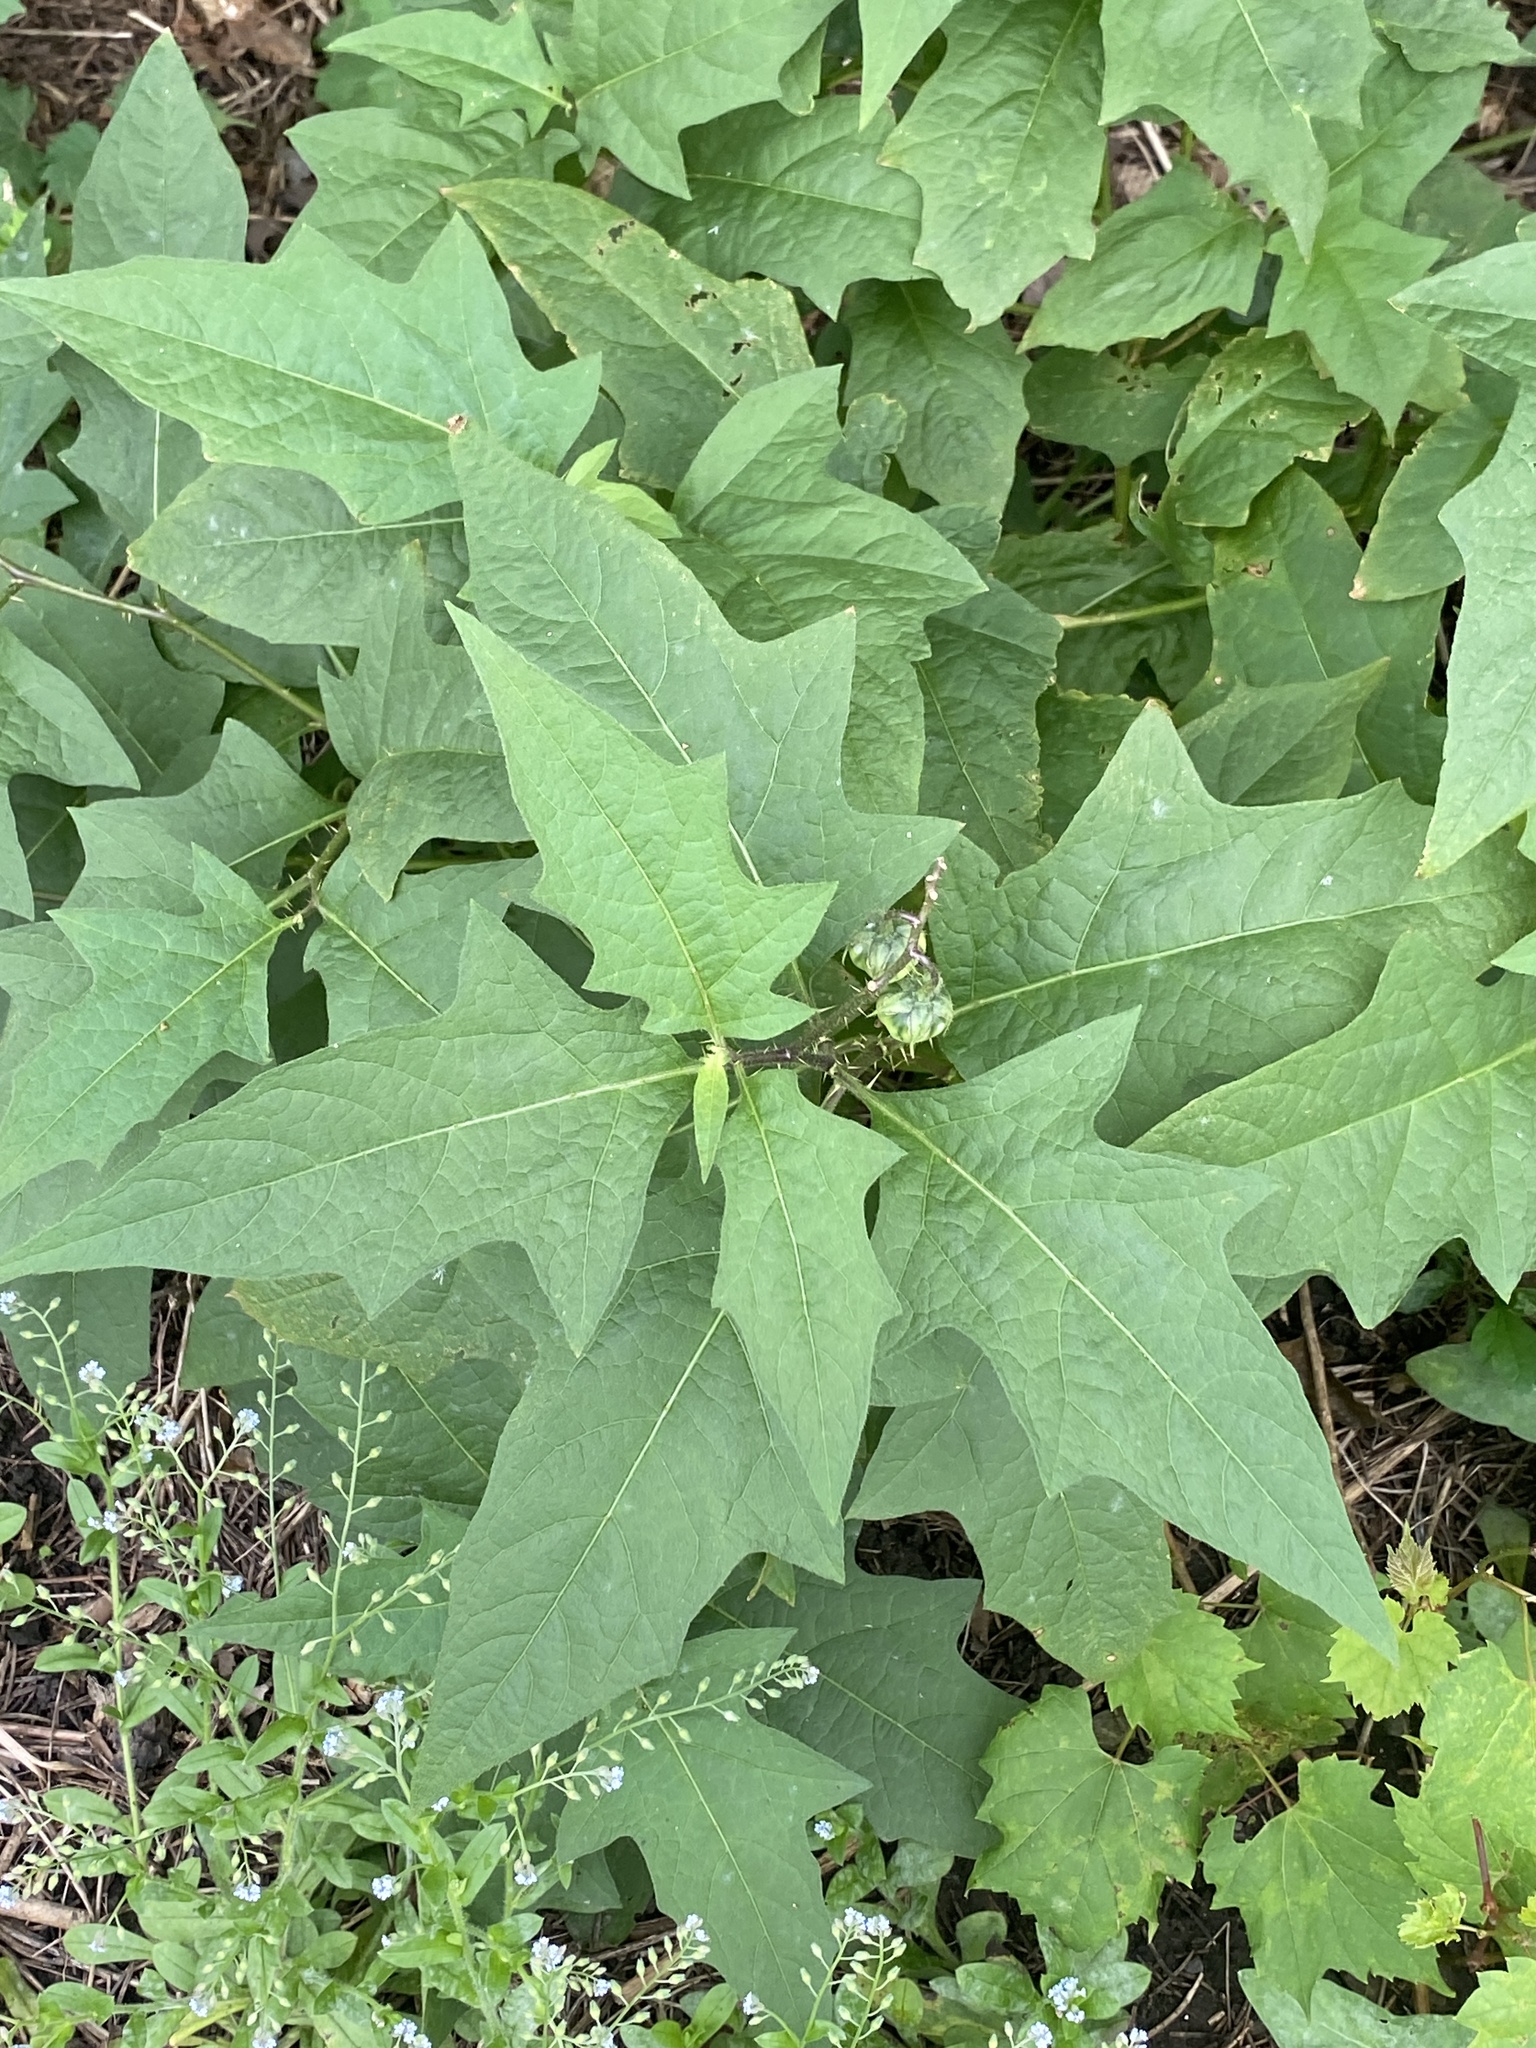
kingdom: Plantae
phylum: Tracheophyta
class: Magnoliopsida
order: Solanales
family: Solanaceae
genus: Solanum
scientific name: Solanum carolinense
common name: Horse-nettle
